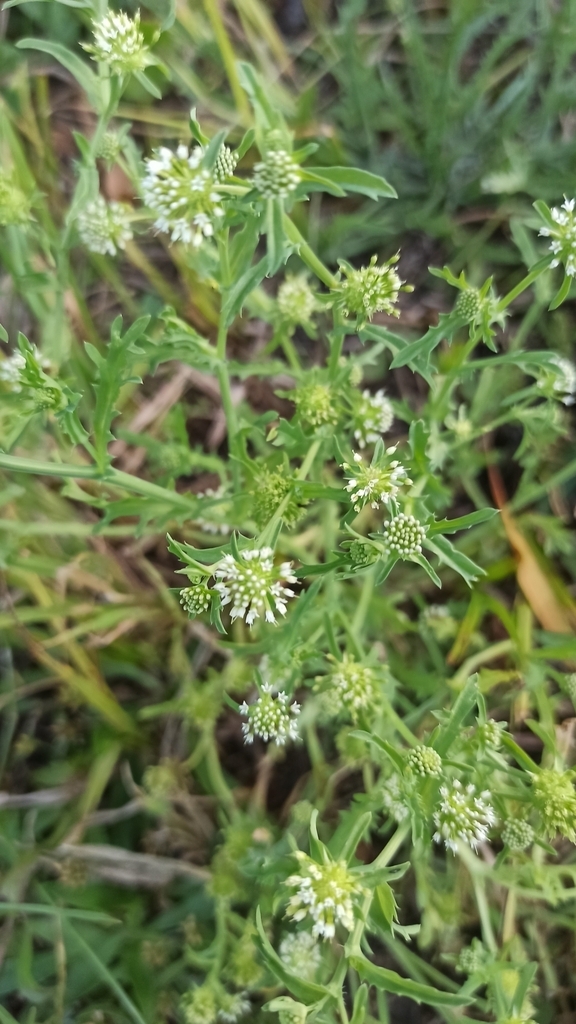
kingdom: Plantae
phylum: Tracheophyta
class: Magnoliopsida
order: Asterales
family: Calyceraceae
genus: Acicarpha
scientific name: Acicarpha tribuloides
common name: Madam gorgon
